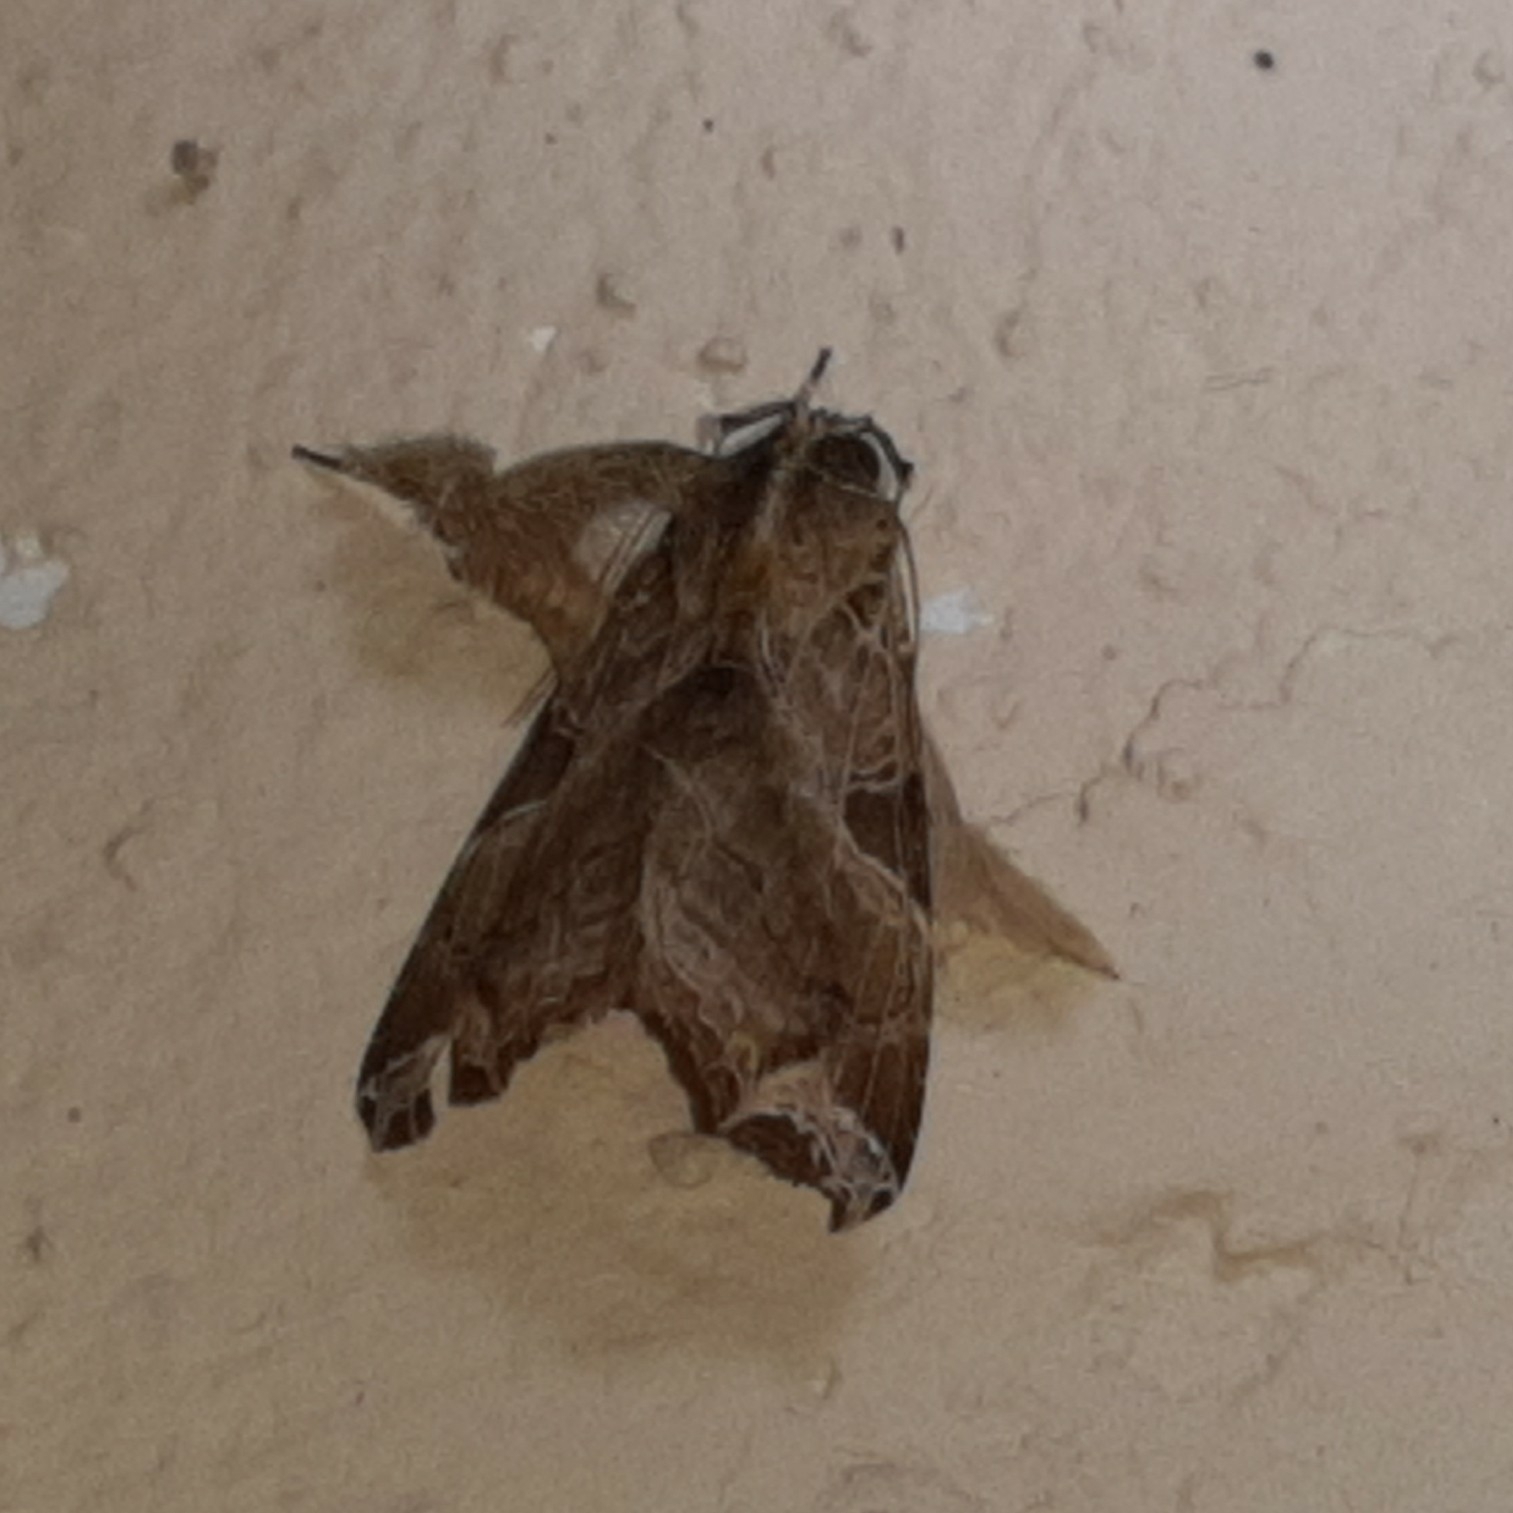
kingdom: Animalia
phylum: Arthropoda
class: Insecta
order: Lepidoptera
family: Noctuidae
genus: Callopistria
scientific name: Callopistria floridensis
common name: Florida fern moth
